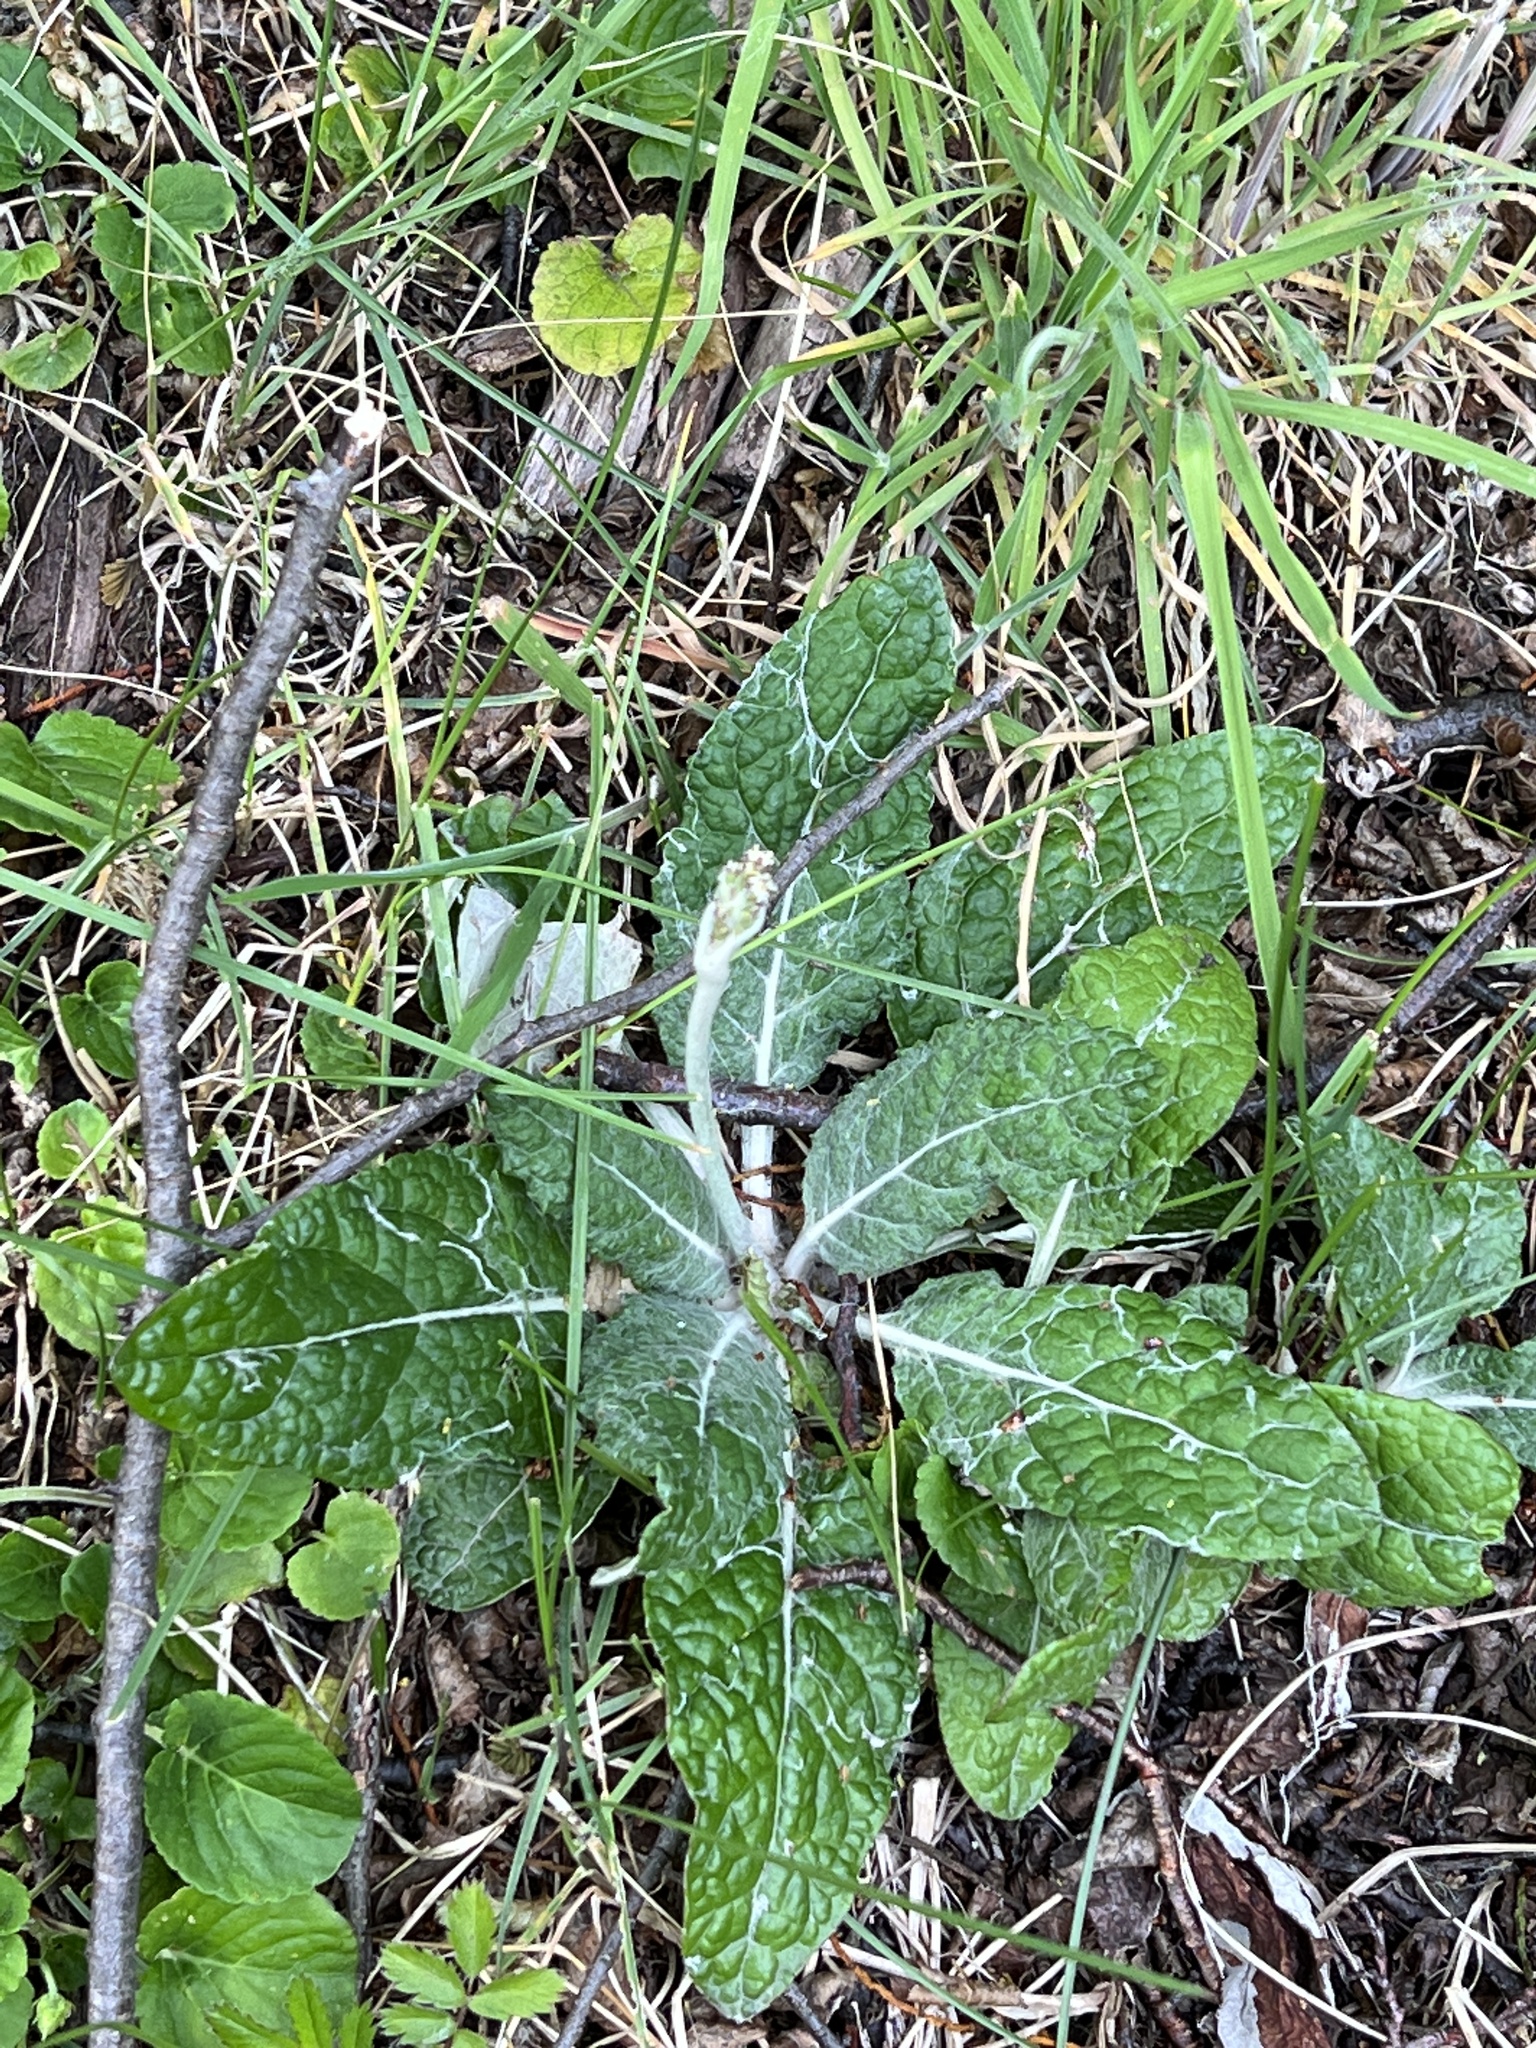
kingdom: Plantae
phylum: Tracheophyta
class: Magnoliopsida
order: Asterales
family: Asteraceae
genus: Adenocaulon
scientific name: Adenocaulon chilense
